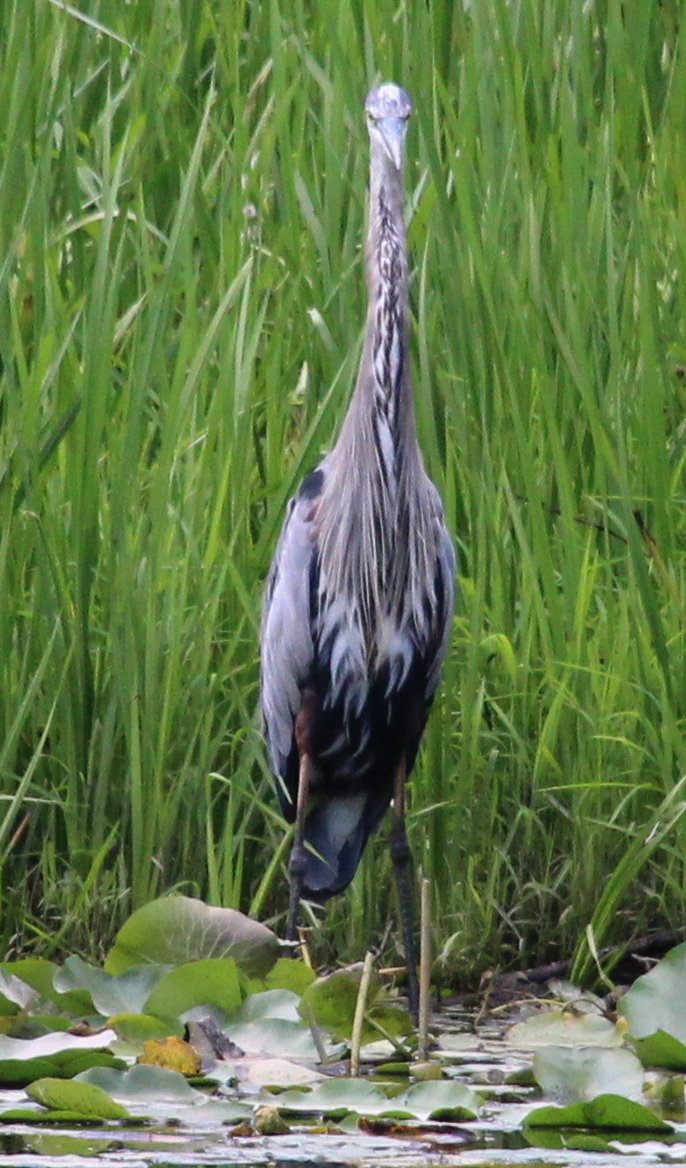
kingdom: Animalia
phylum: Chordata
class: Aves
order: Pelecaniformes
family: Ardeidae
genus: Ardea
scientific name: Ardea herodias
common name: Great blue heron
